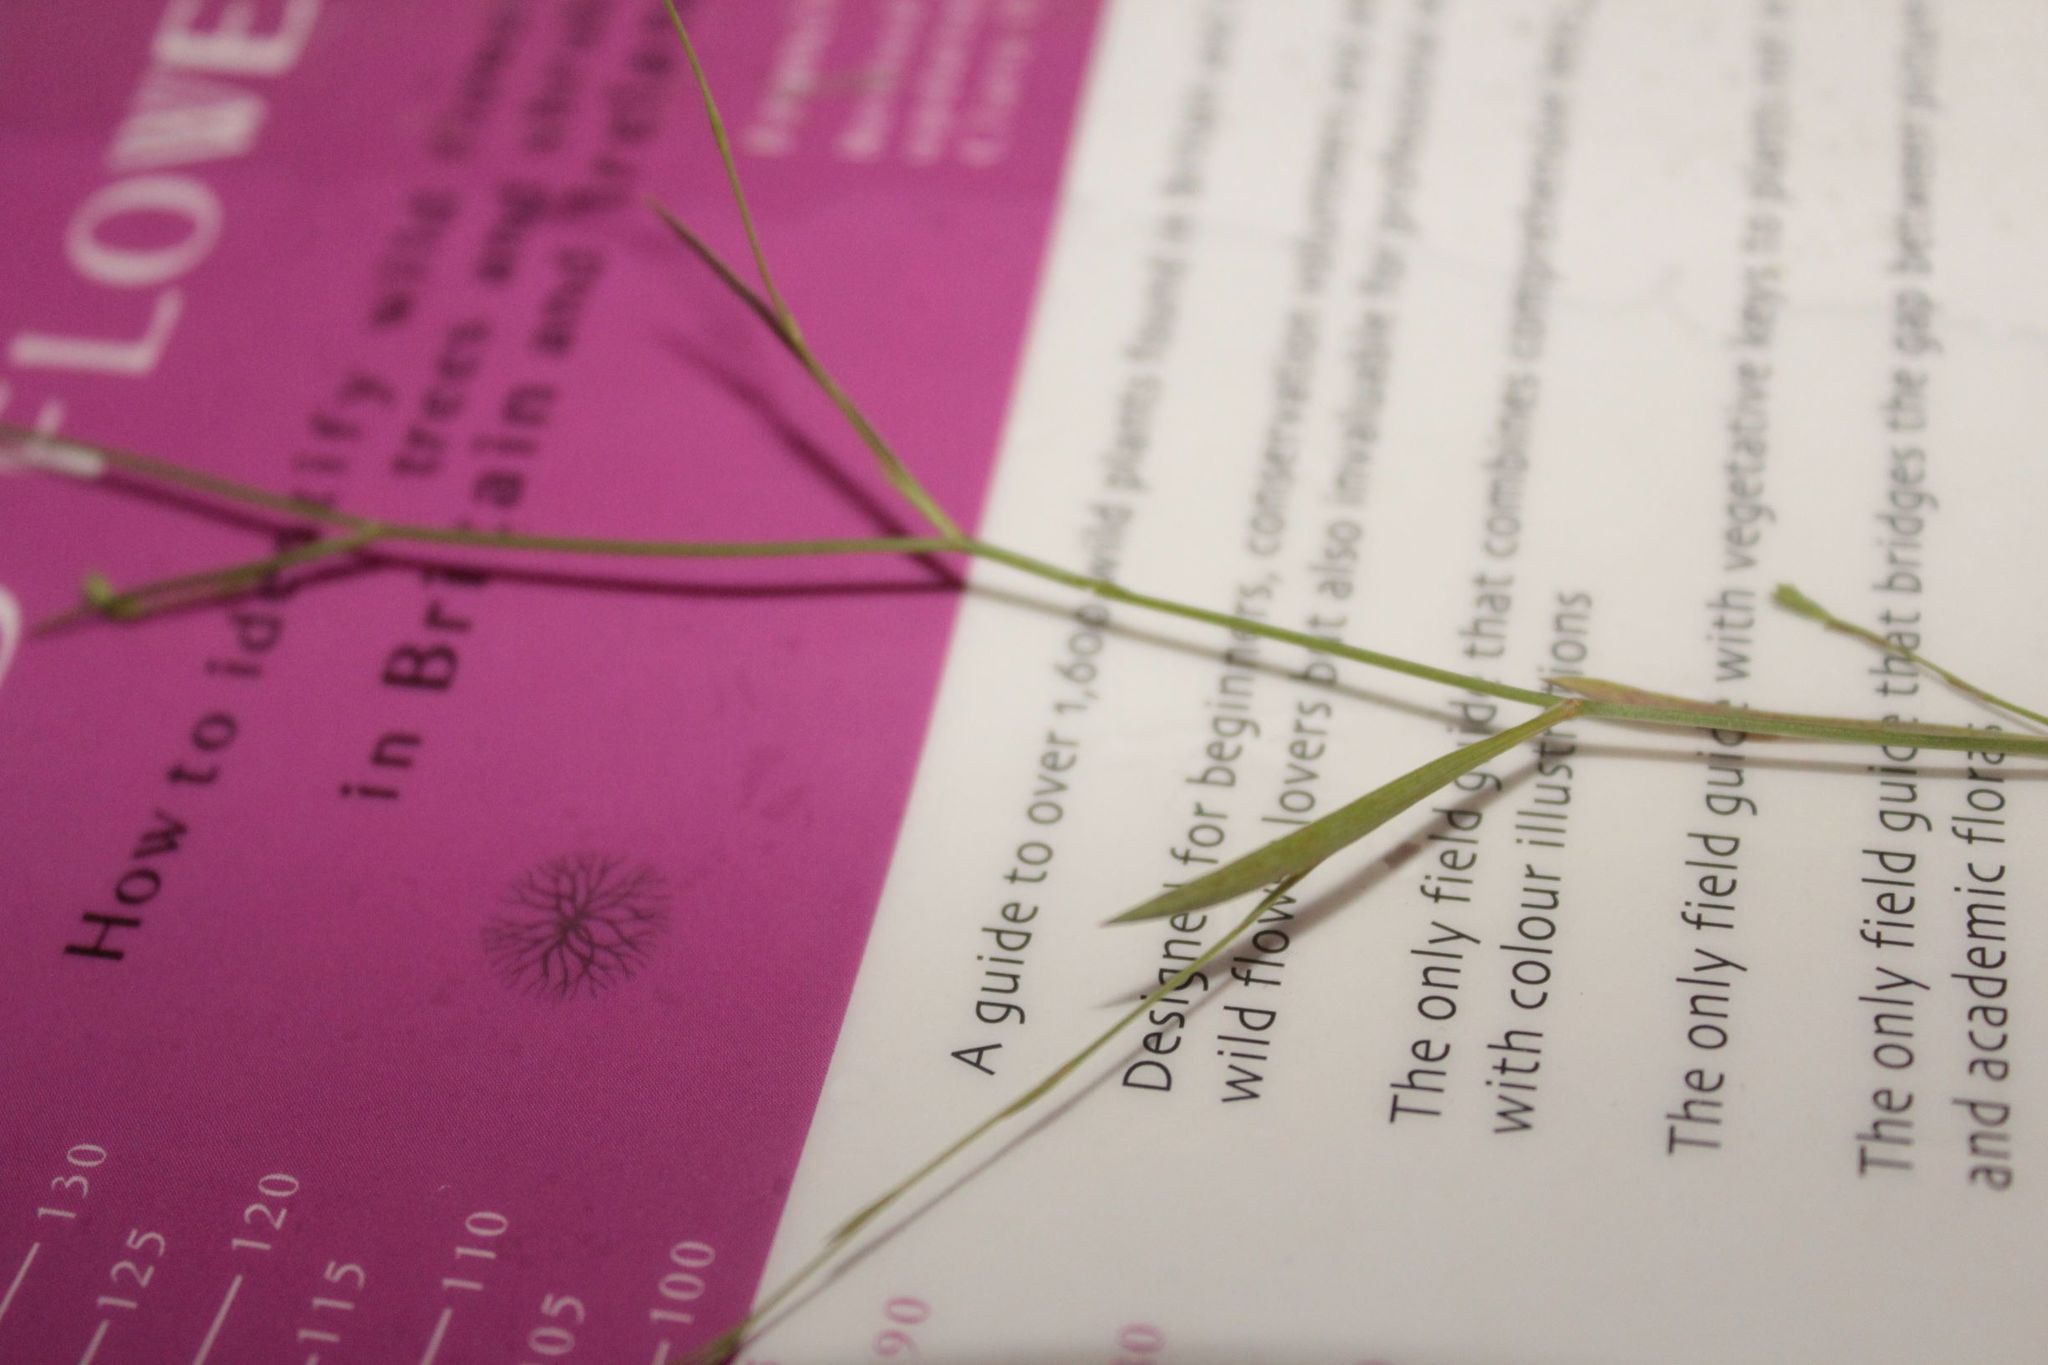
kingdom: Plantae
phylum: Tracheophyta
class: Magnoliopsida
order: Apiales
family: Apiaceae
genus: Bupleurum
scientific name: Bupleurum tenuissimum
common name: Slender hare's-ear
